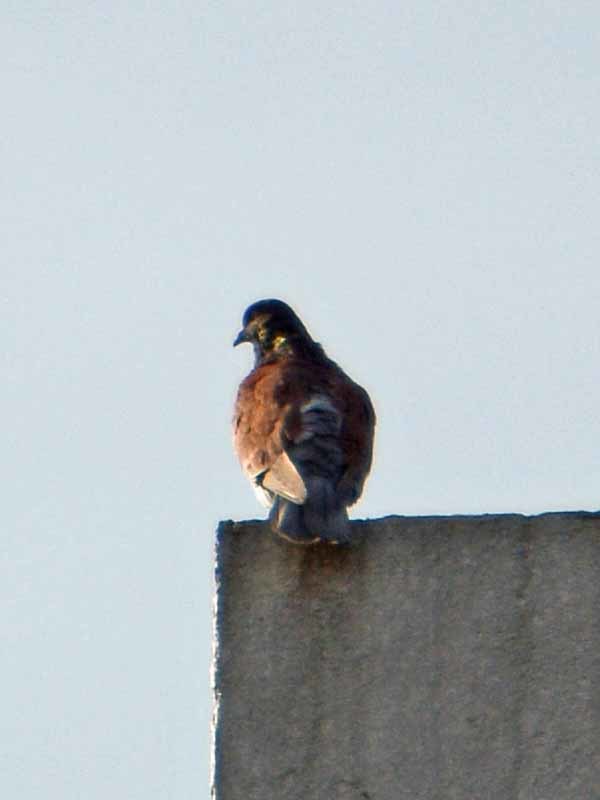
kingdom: Animalia
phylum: Chordata
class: Aves
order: Columbiformes
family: Columbidae
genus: Columba
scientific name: Columba livia
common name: Rock pigeon
